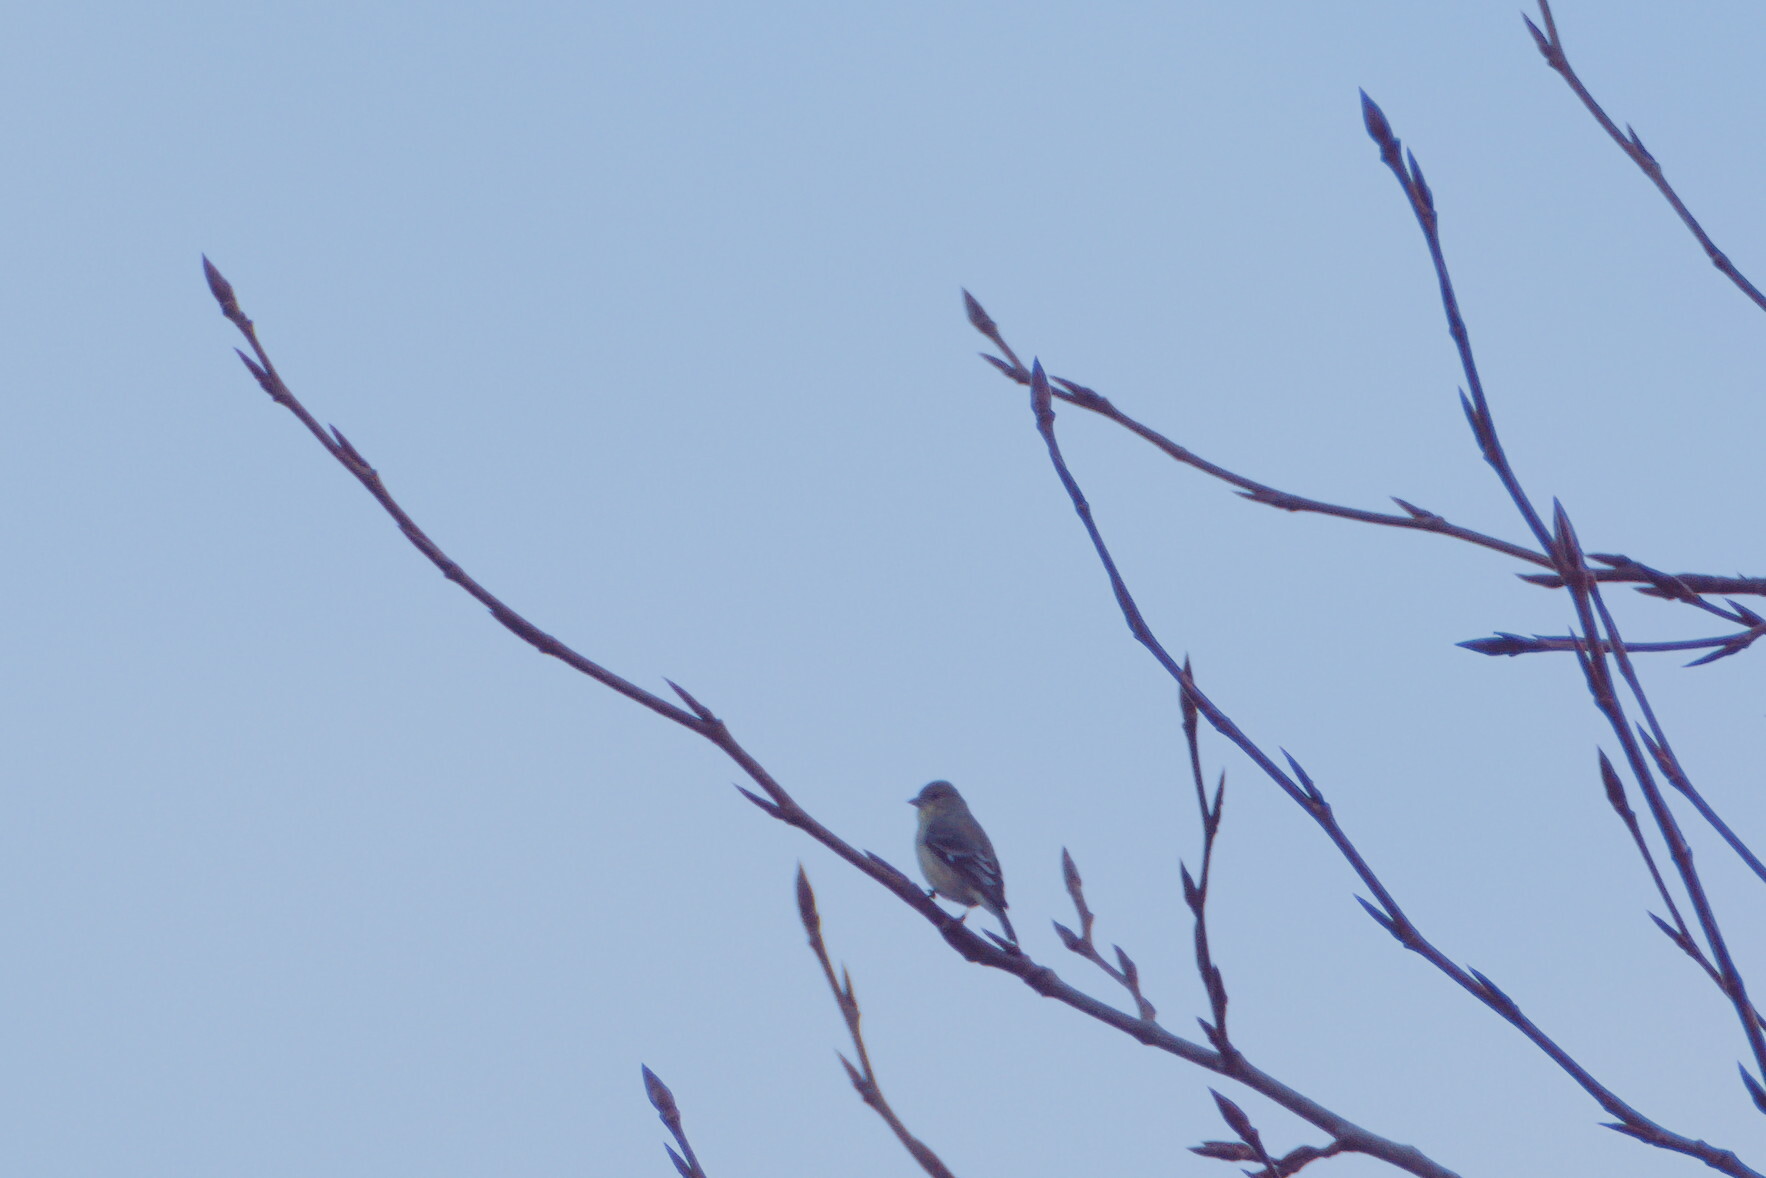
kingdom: Animalia
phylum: Chordata
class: Aves
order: Passeriformes
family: Fringillidae
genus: Spinus
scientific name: Spinus psaltria
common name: Lesser goldfinch
